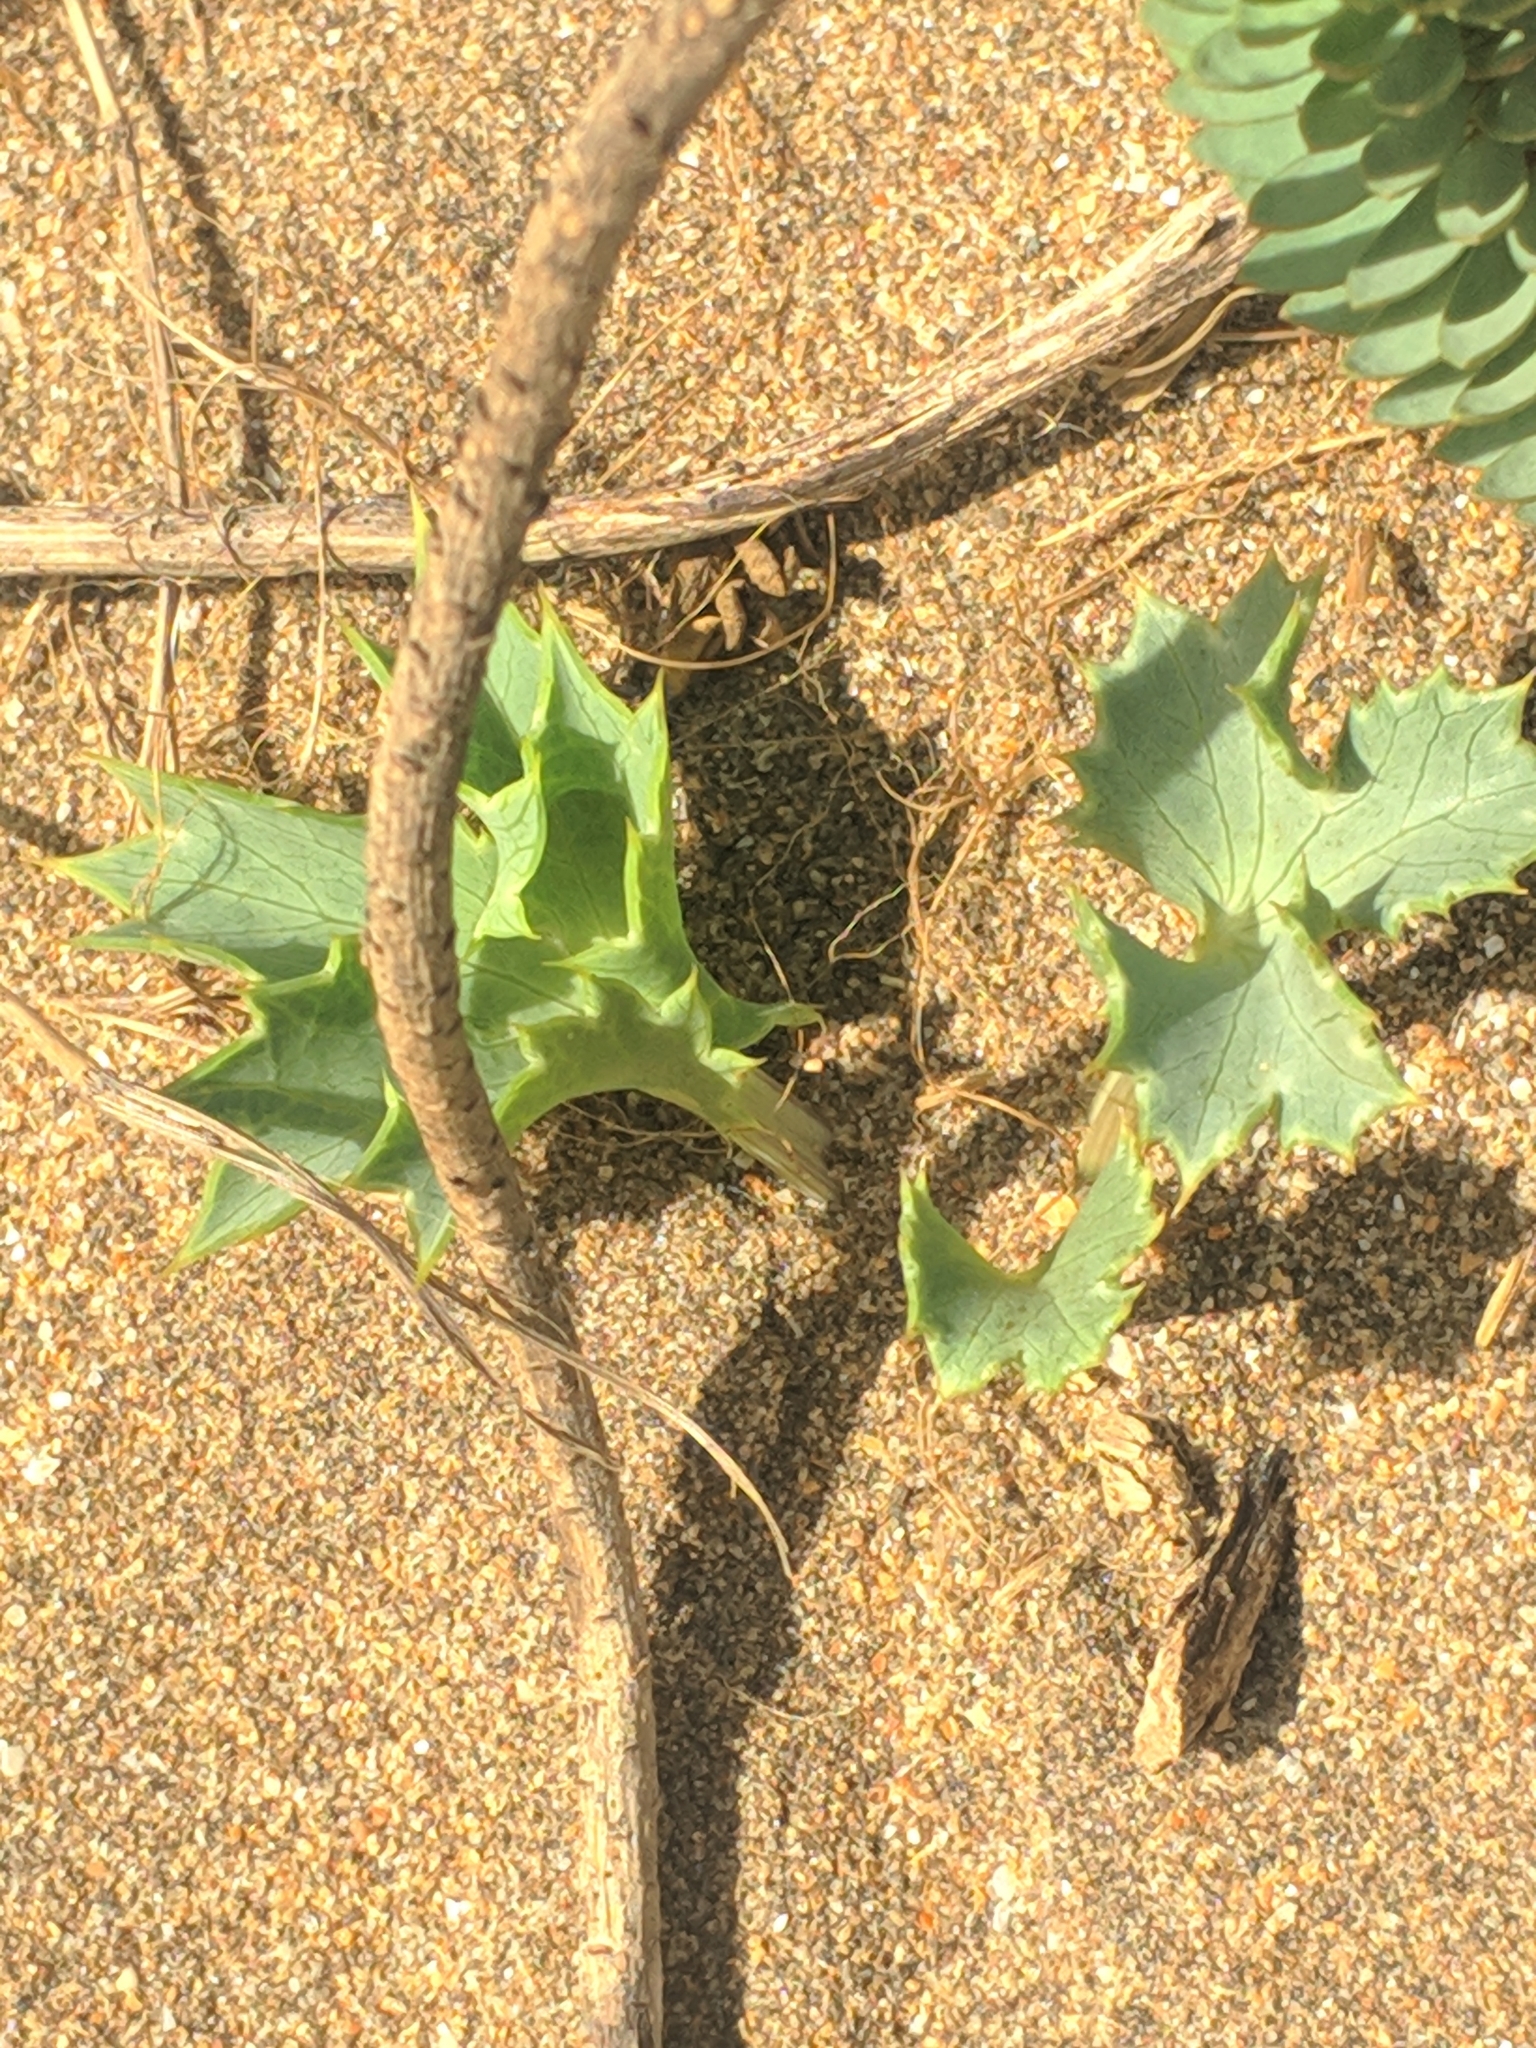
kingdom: Plantae
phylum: Tracheophyta
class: Magnoliopsida
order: Apiales
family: Apiaceae
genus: Eryngium
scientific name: Eryngium maritimum
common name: Sea-holly
